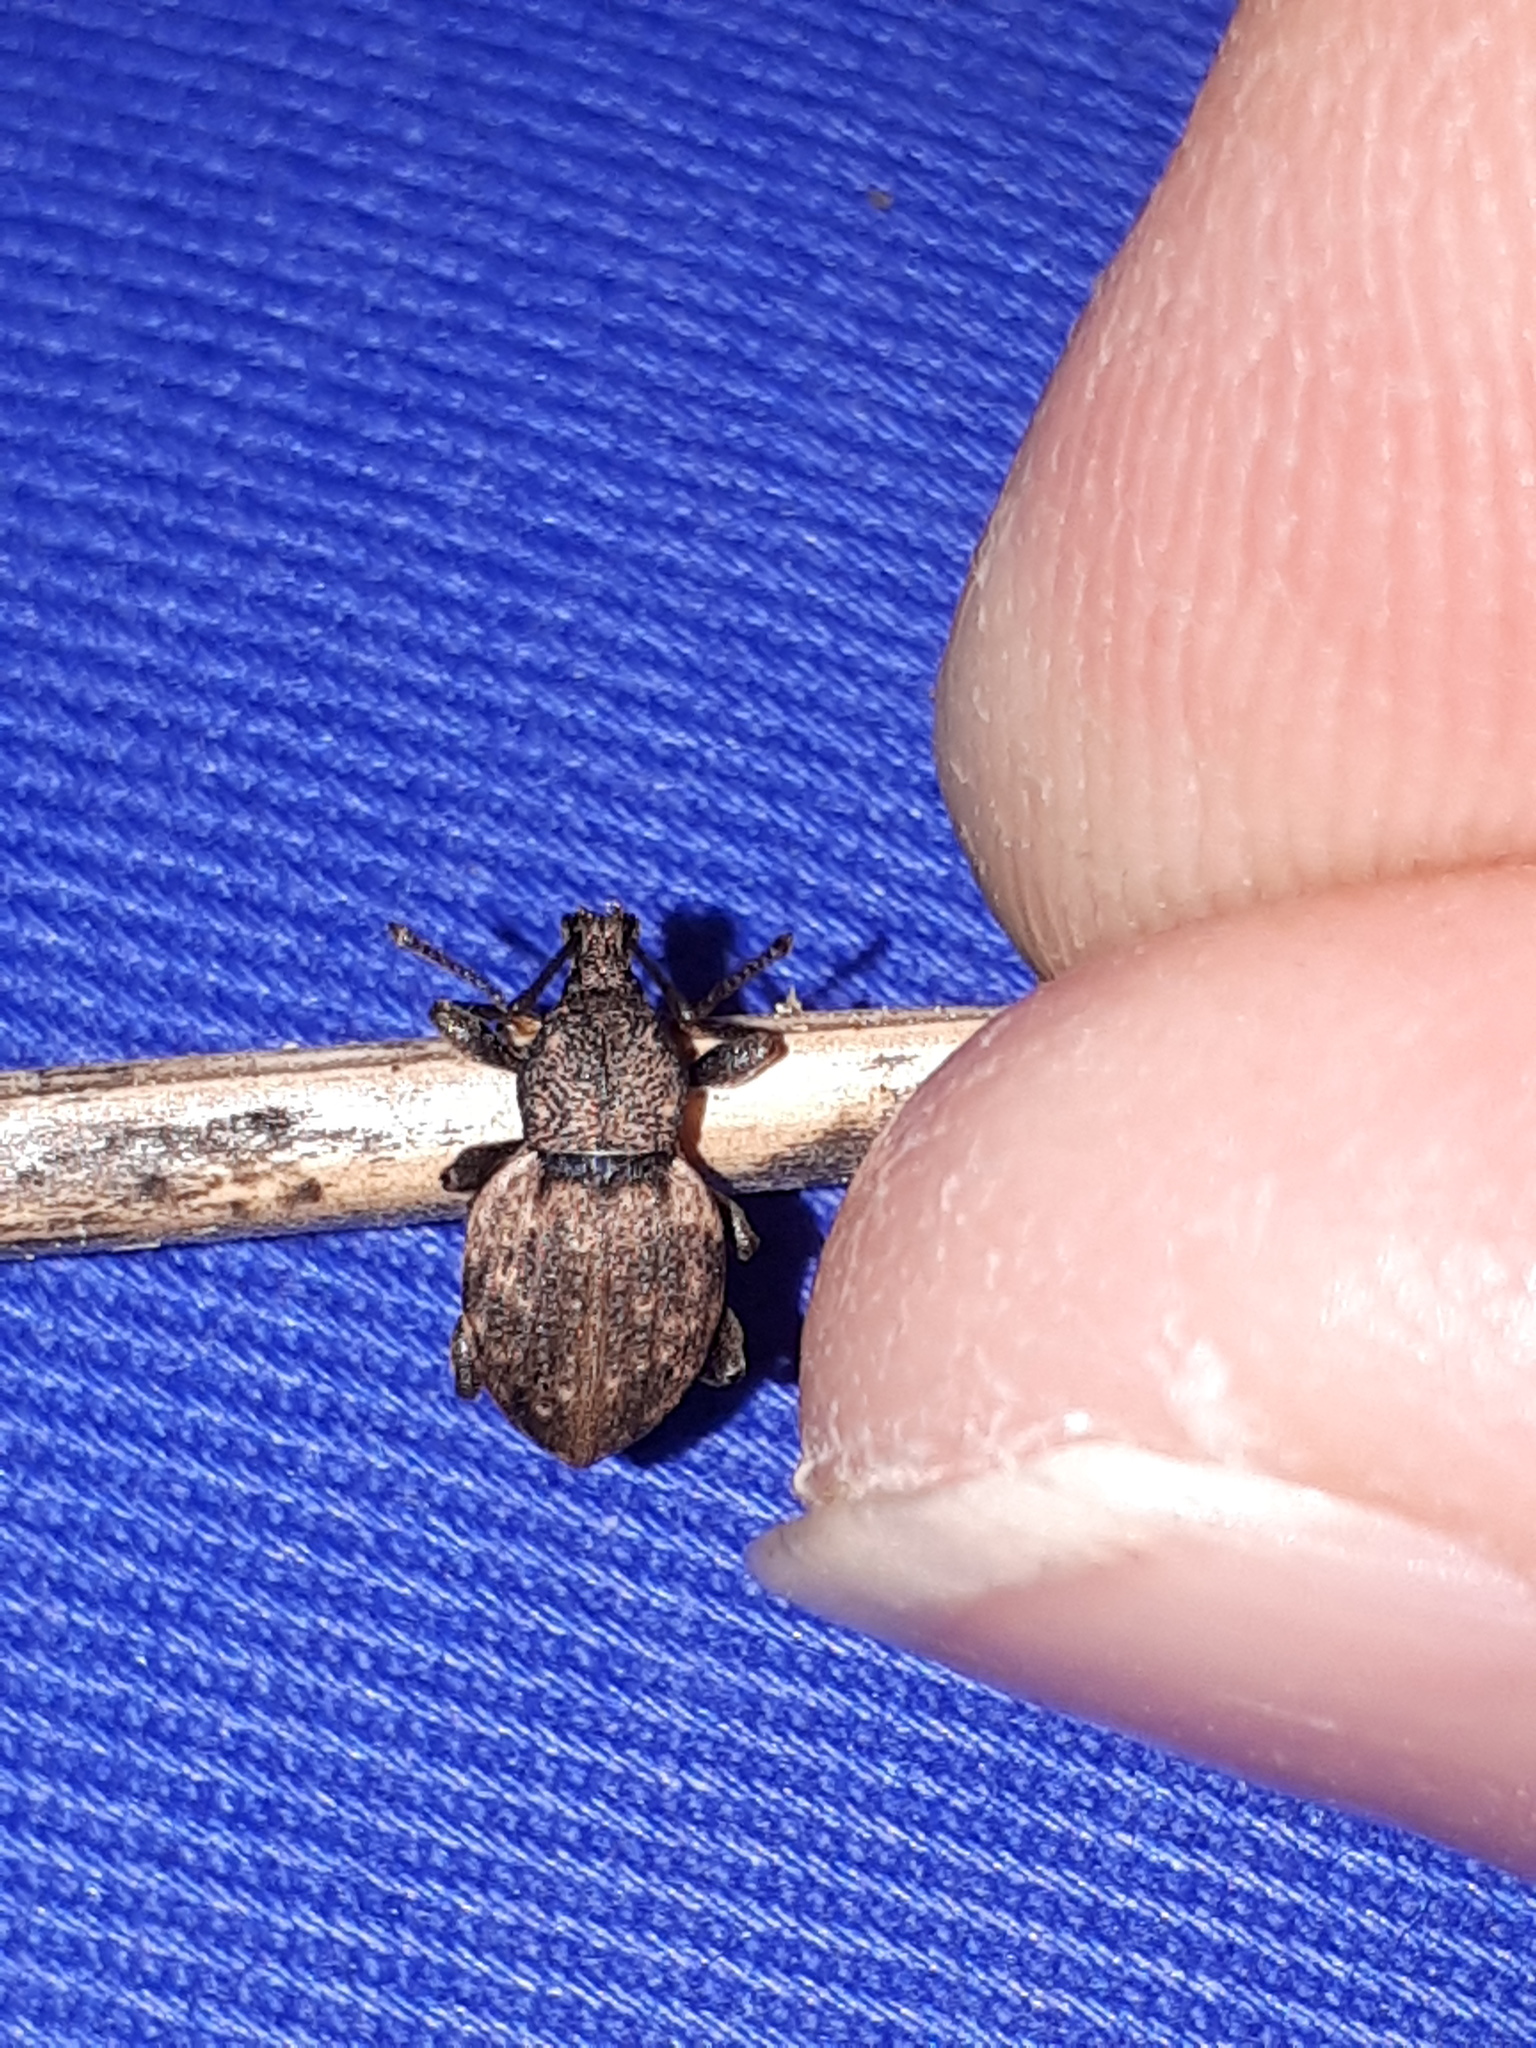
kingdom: Animalia
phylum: Arthropoda
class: Insecta
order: Coleoptera
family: Curculionidae
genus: Otiorhynchus
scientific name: Otiorhynchus raucus
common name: Weevil
